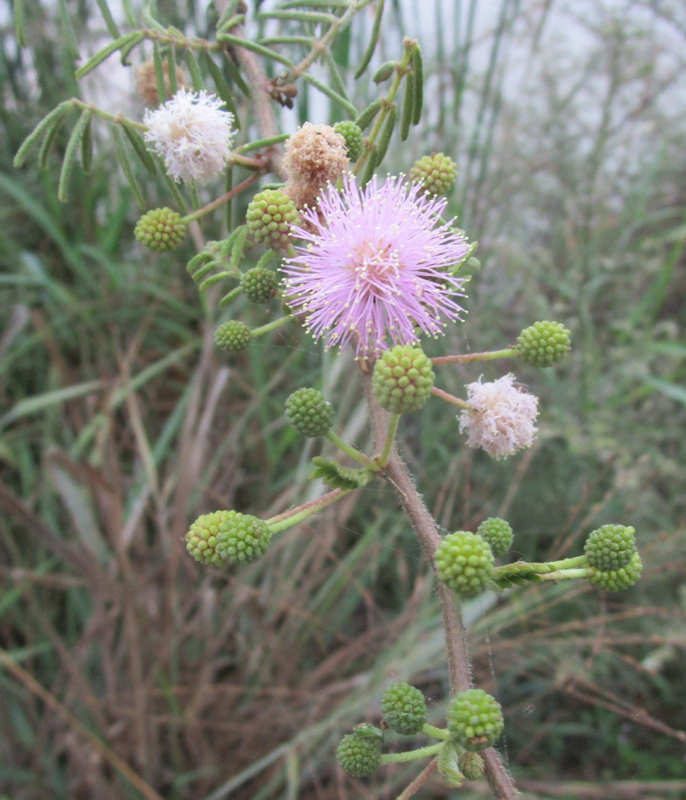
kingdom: Plantae
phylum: Tracheophyta
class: Magnoliopsida
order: Fabales
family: Fabaceae
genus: Mimosa
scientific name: Mimosa pigra
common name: Black mimosa
